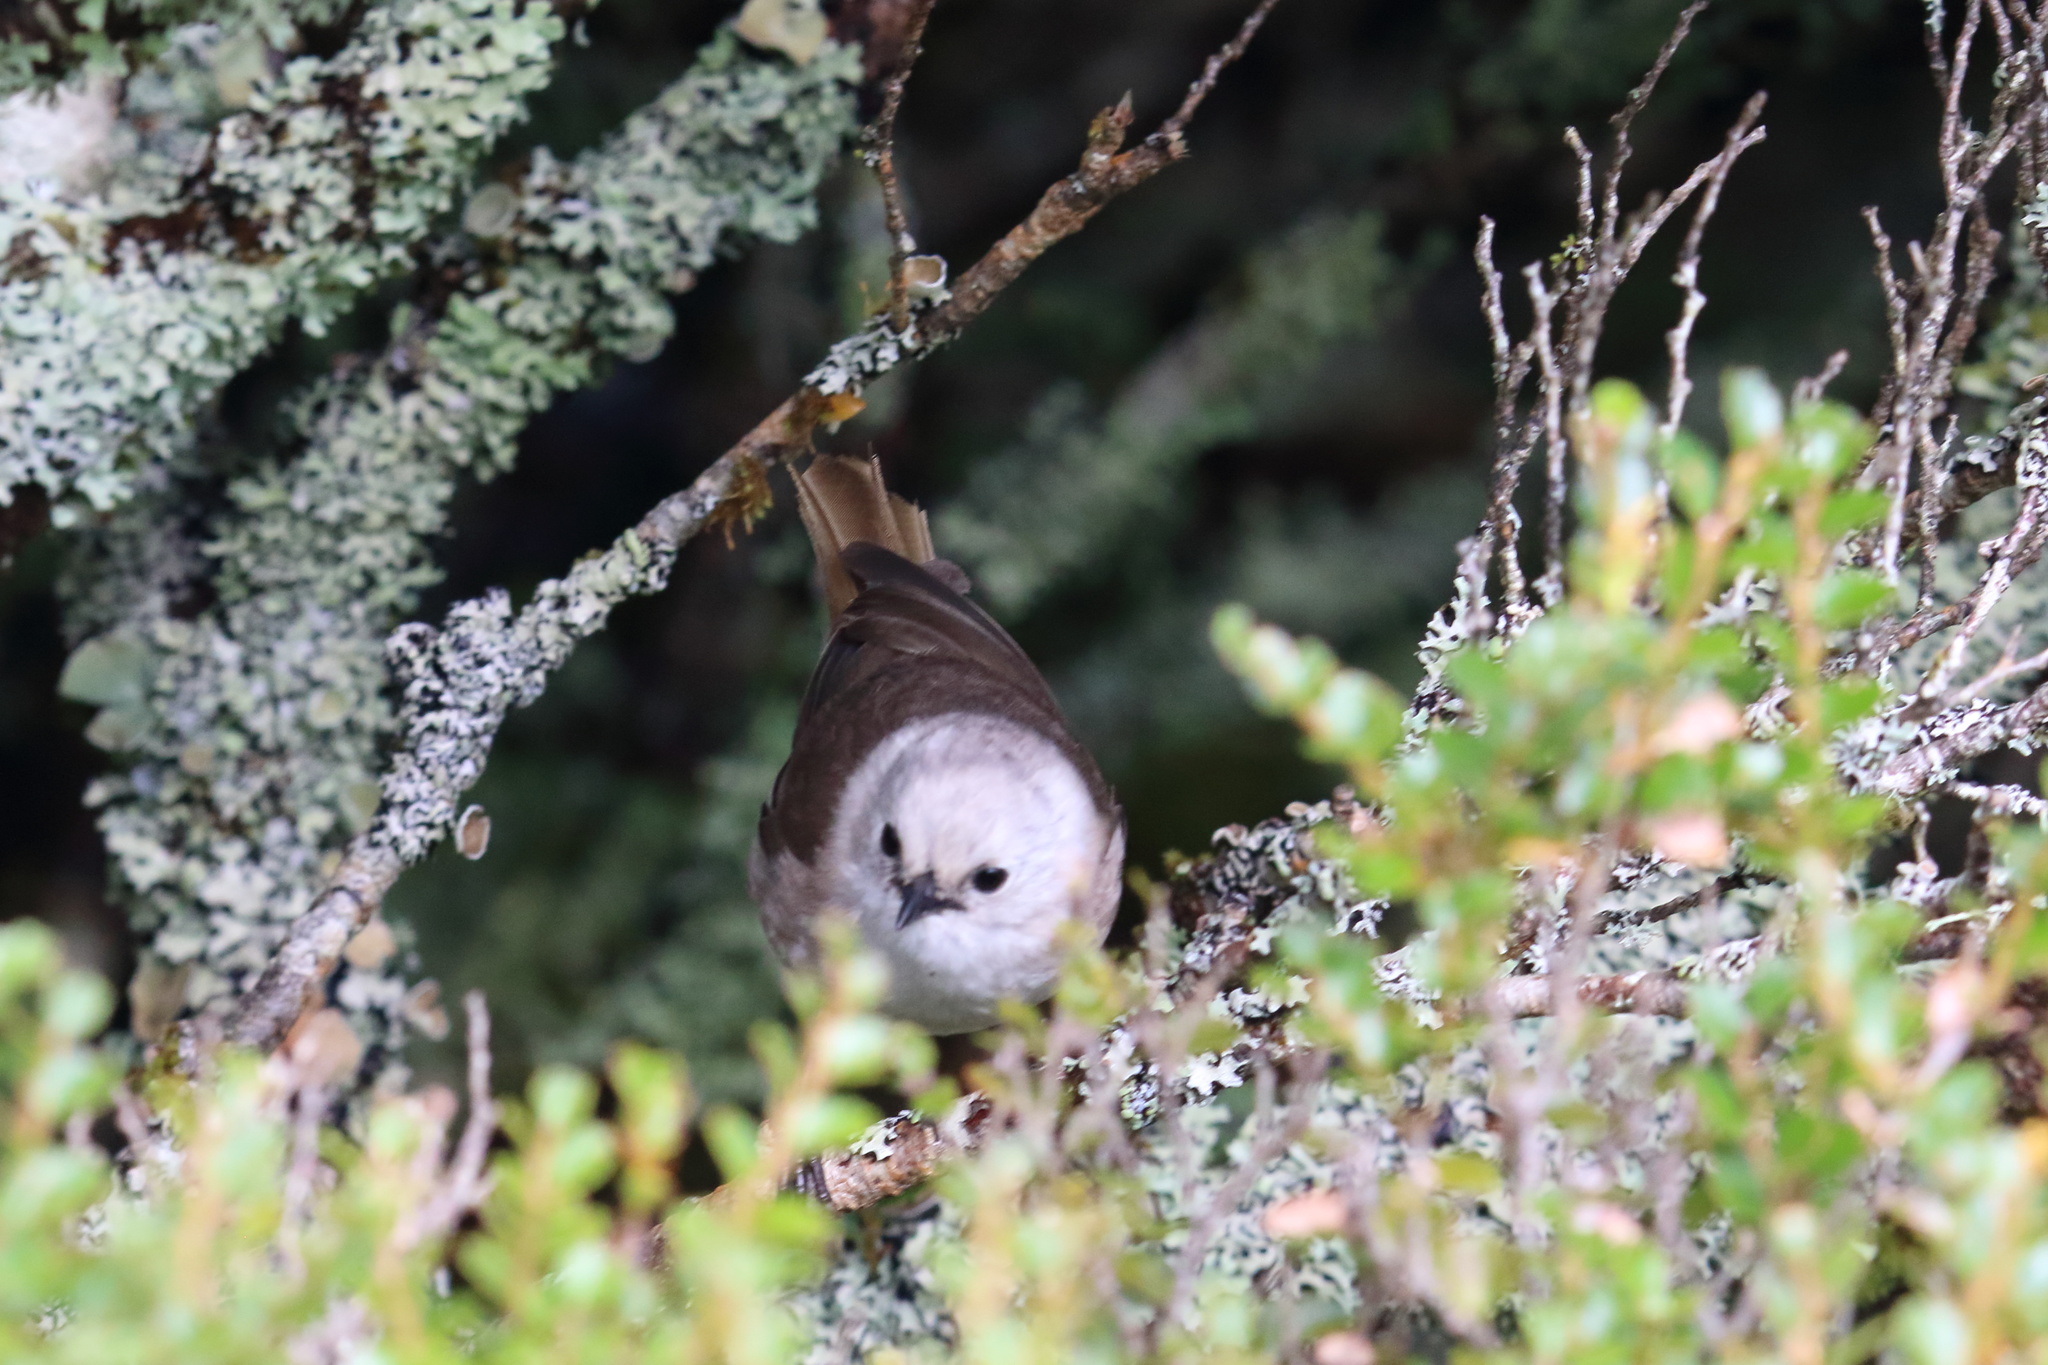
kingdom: Animalia
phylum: Chordata
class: Aves
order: Passeriformes
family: Acanthizidae
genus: Mohoua
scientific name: Mohoua albicilla
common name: Whitehead
